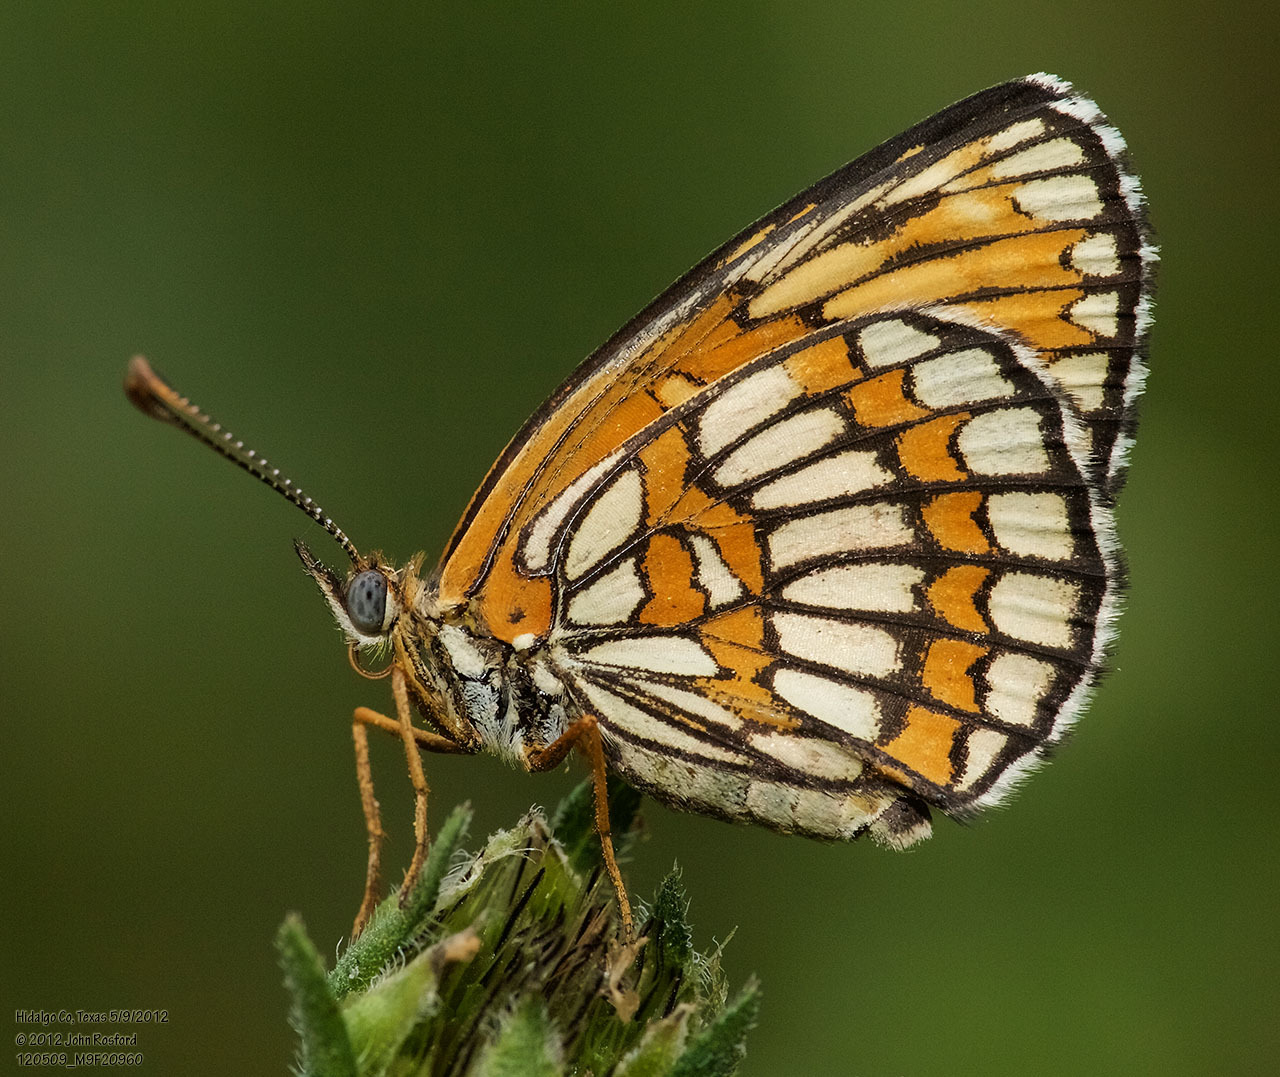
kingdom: Animalia
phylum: Arthropoda
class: Insecta
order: Lepidoptera
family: Nymphalidae
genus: Thessalia
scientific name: Thessalia theona
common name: Nymphalid moth
